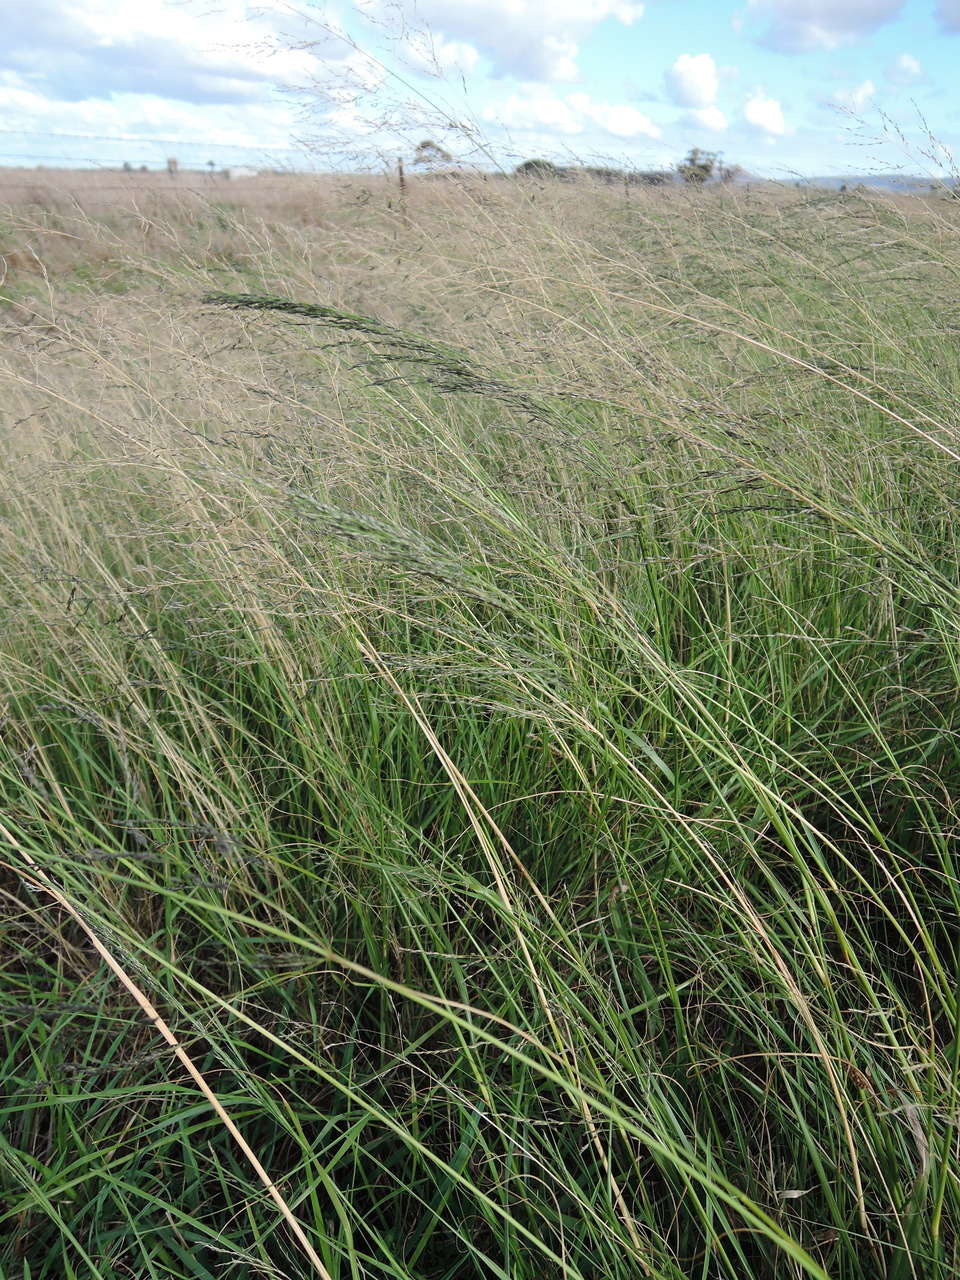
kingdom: Plantae
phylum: Tracheophyta
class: Liliopsida
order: Poales
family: Poaceae
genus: Eragrostis
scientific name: Eragrostis curvula
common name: African love-grass
